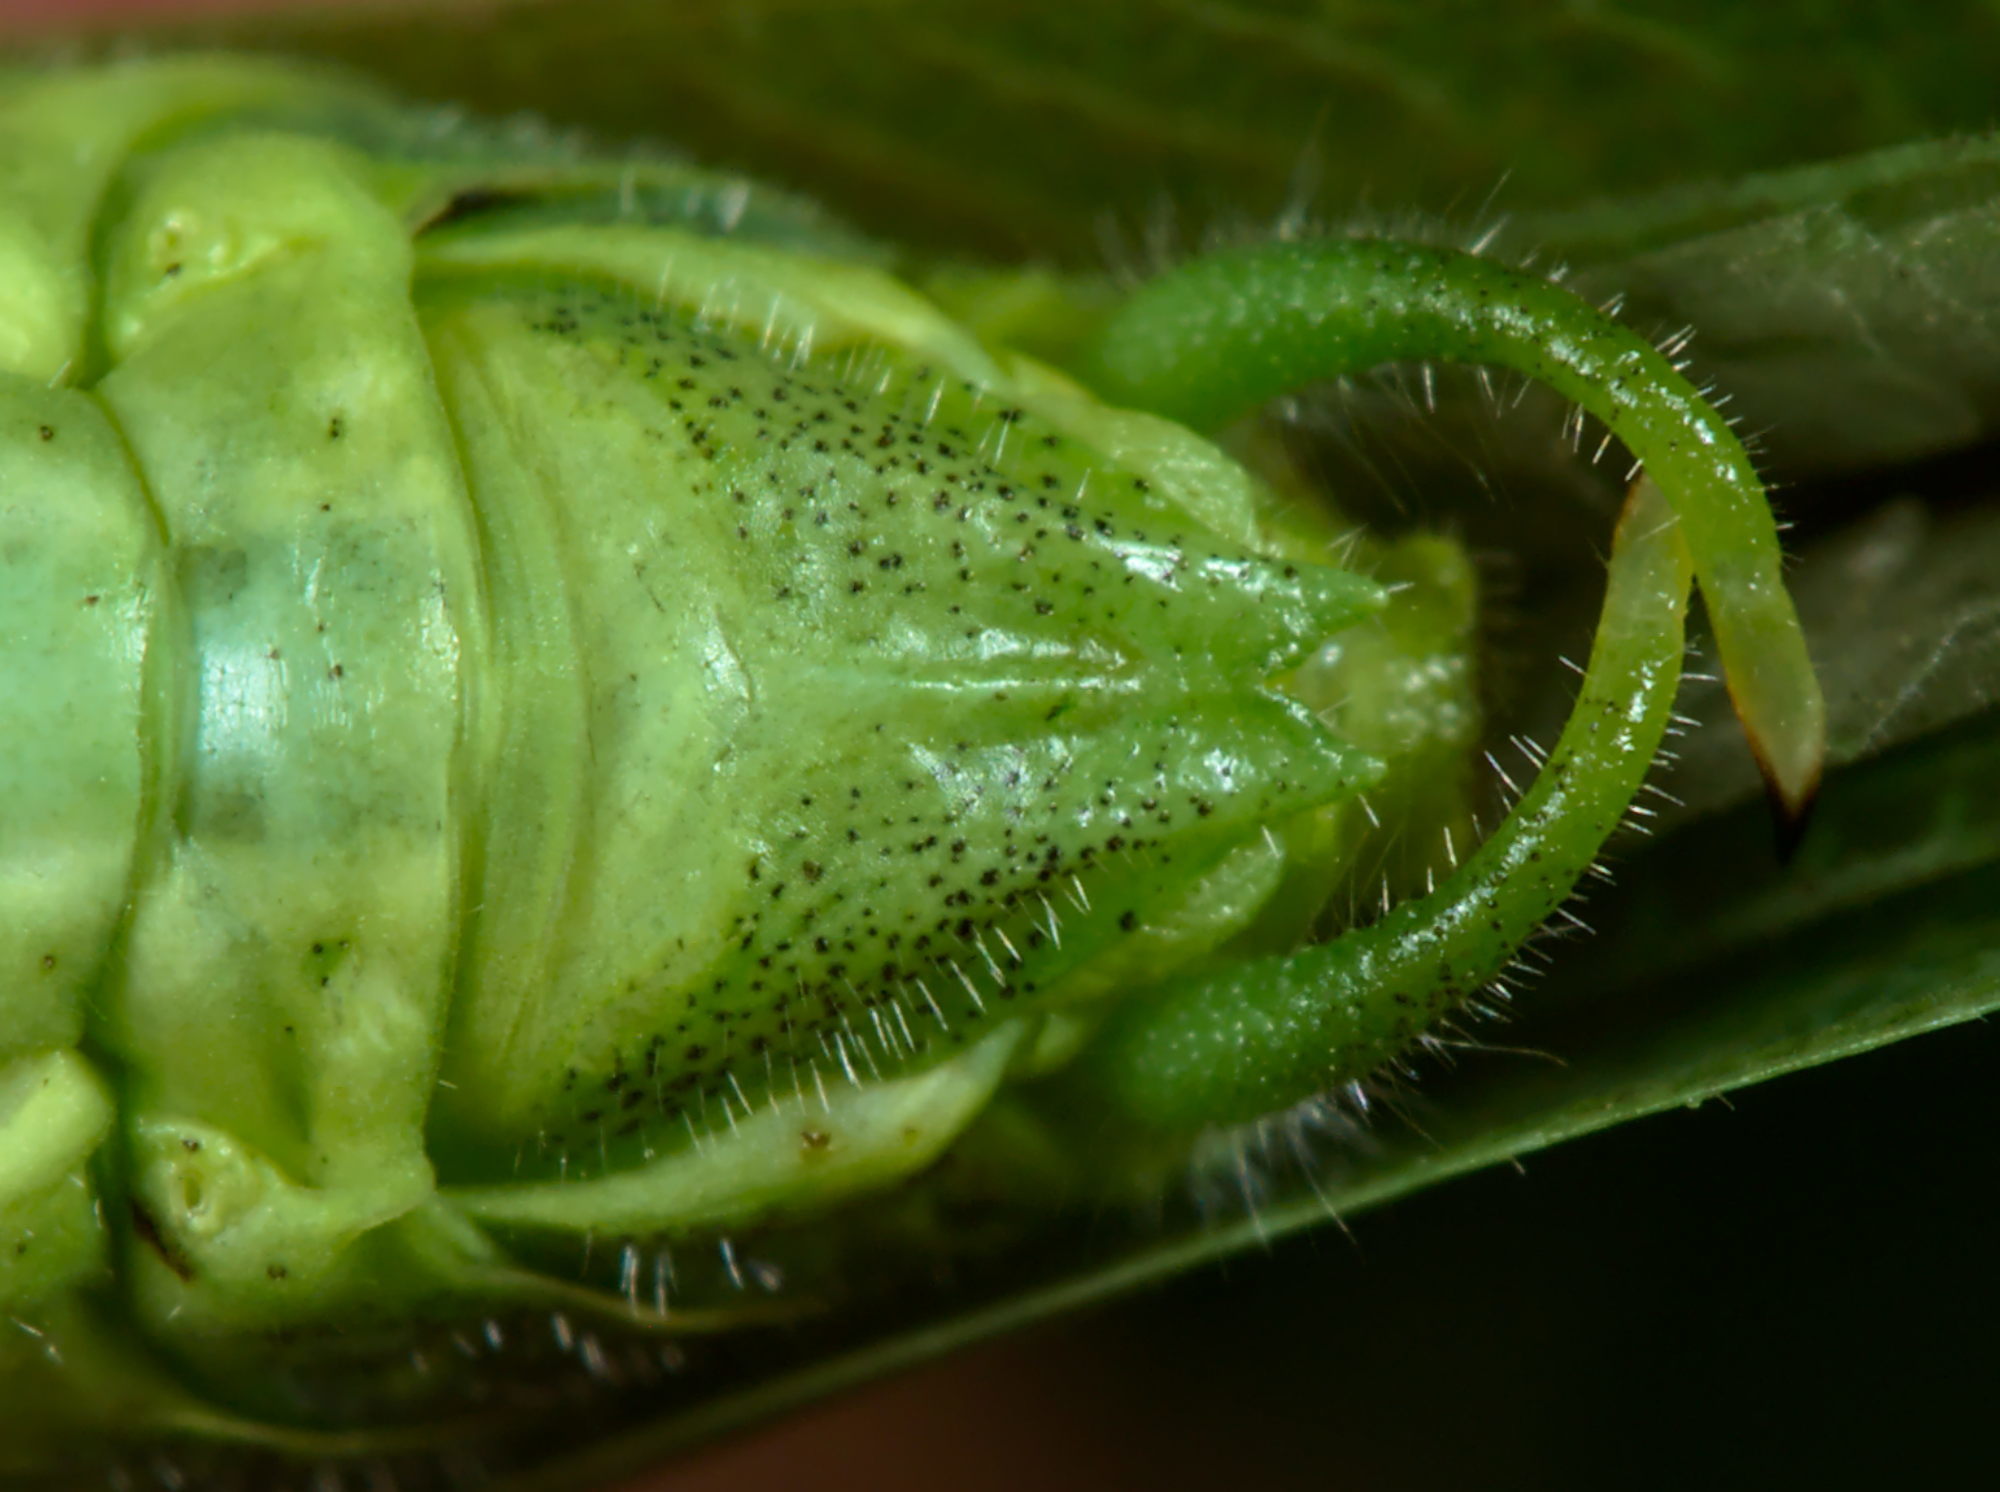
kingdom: Animalia
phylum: Arthropoda
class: Insecta
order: Orthoptera
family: Tettigoniidae
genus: Phaneroptera
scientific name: Phaneroptera nana
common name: Southern sickle bush-cricket
